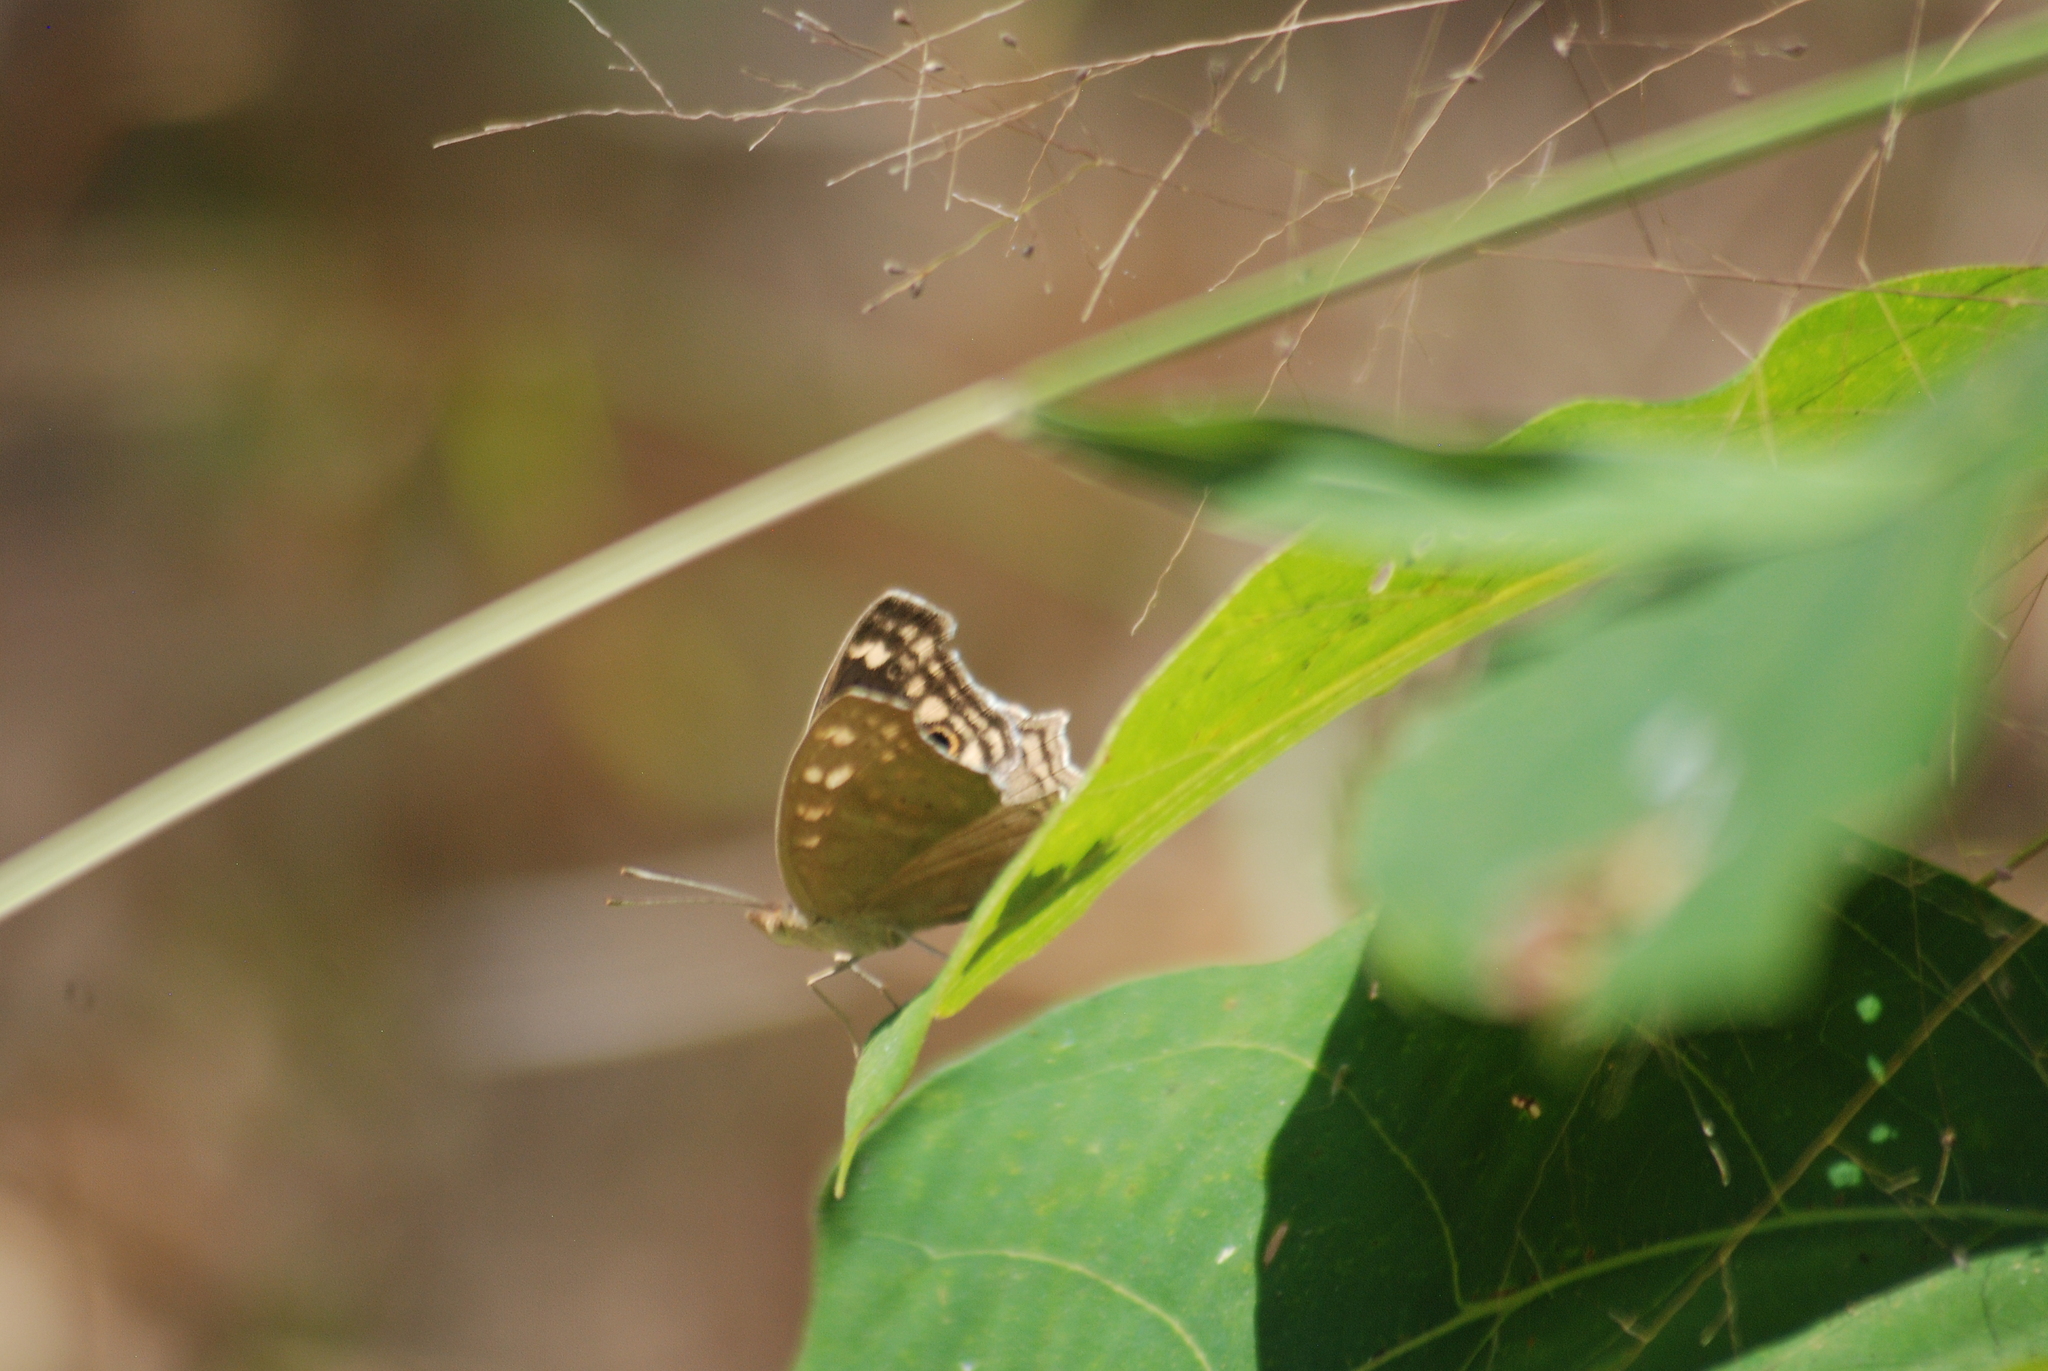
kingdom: Animalia
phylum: Arthropoda
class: Insecta
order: Lepidoptera
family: Nymphalidae
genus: Junonia
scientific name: Junonia lemonias
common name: Lemon pansy
